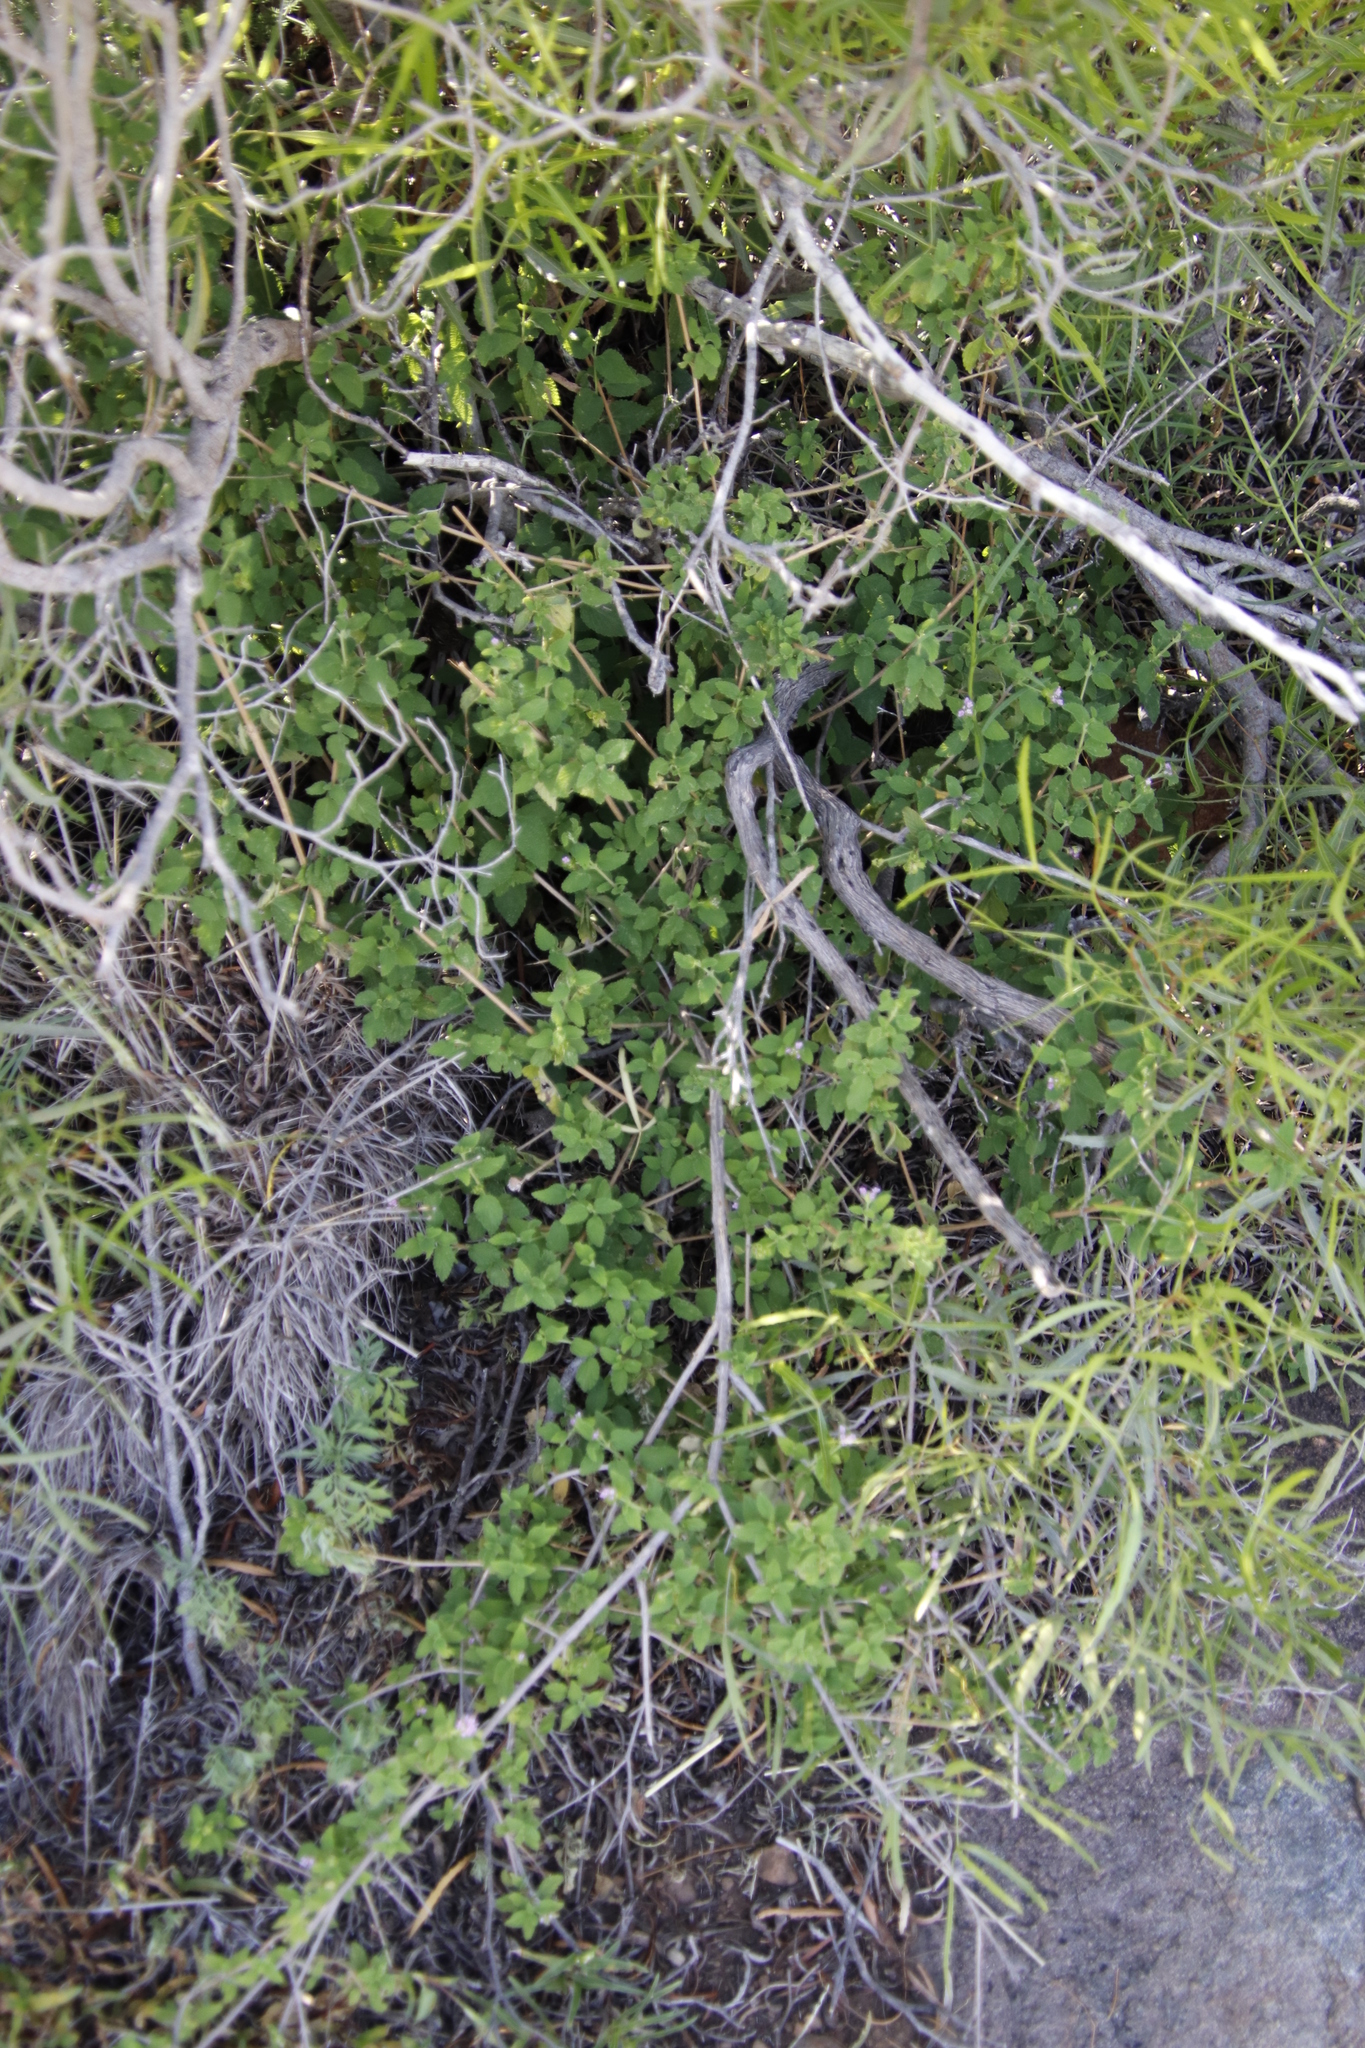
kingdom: Plantae
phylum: Tracheophyta
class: Magnoliopsida
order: Lamiales
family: Verbenaceae
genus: Lantana
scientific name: Lantana rugosa
